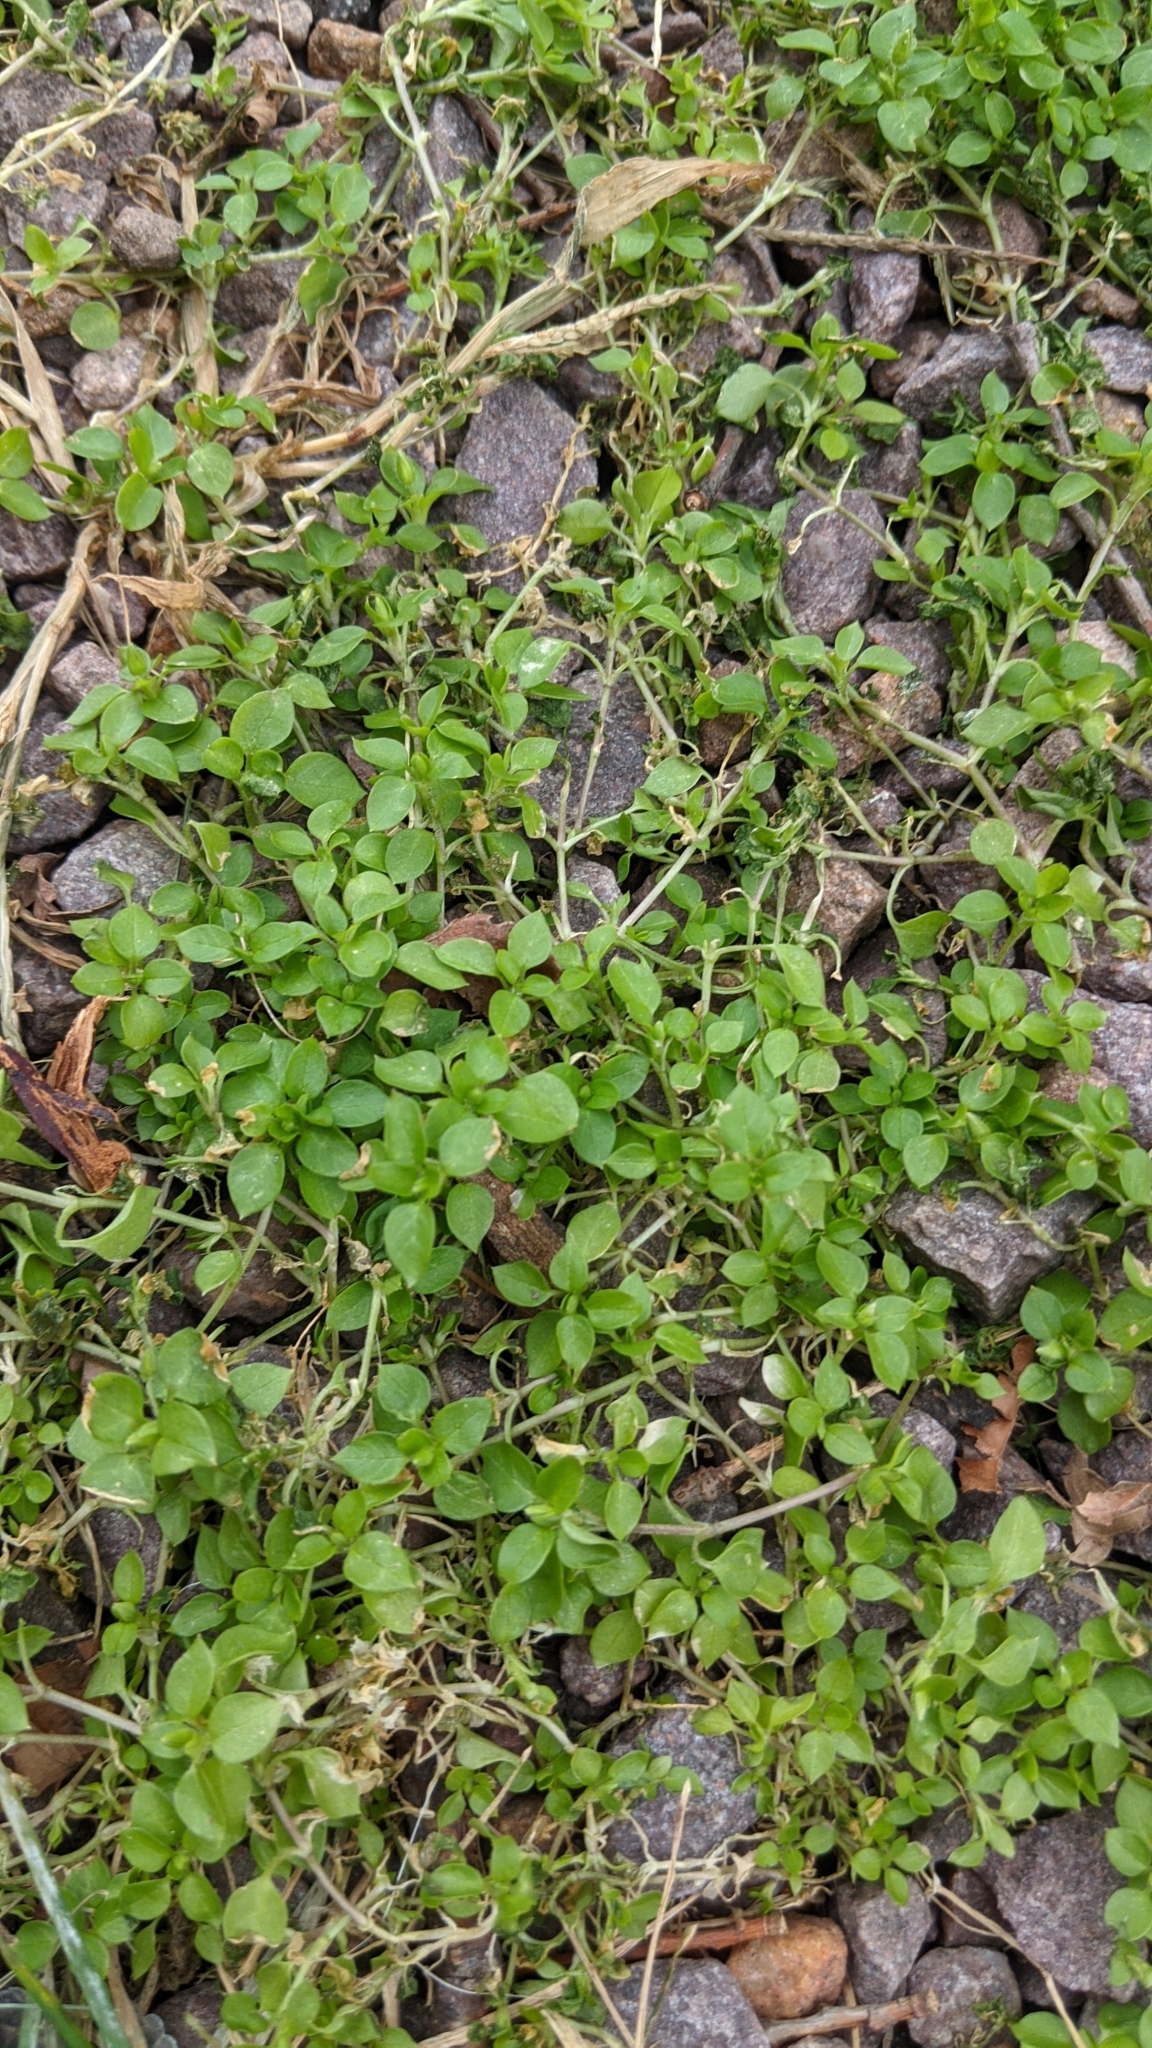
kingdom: Plantae
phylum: Tracheophyta
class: Magnoliopsida
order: Caryophyllales
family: Caryophyllaceae
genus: Stellaria
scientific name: Stellaria media
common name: Common chickweed
